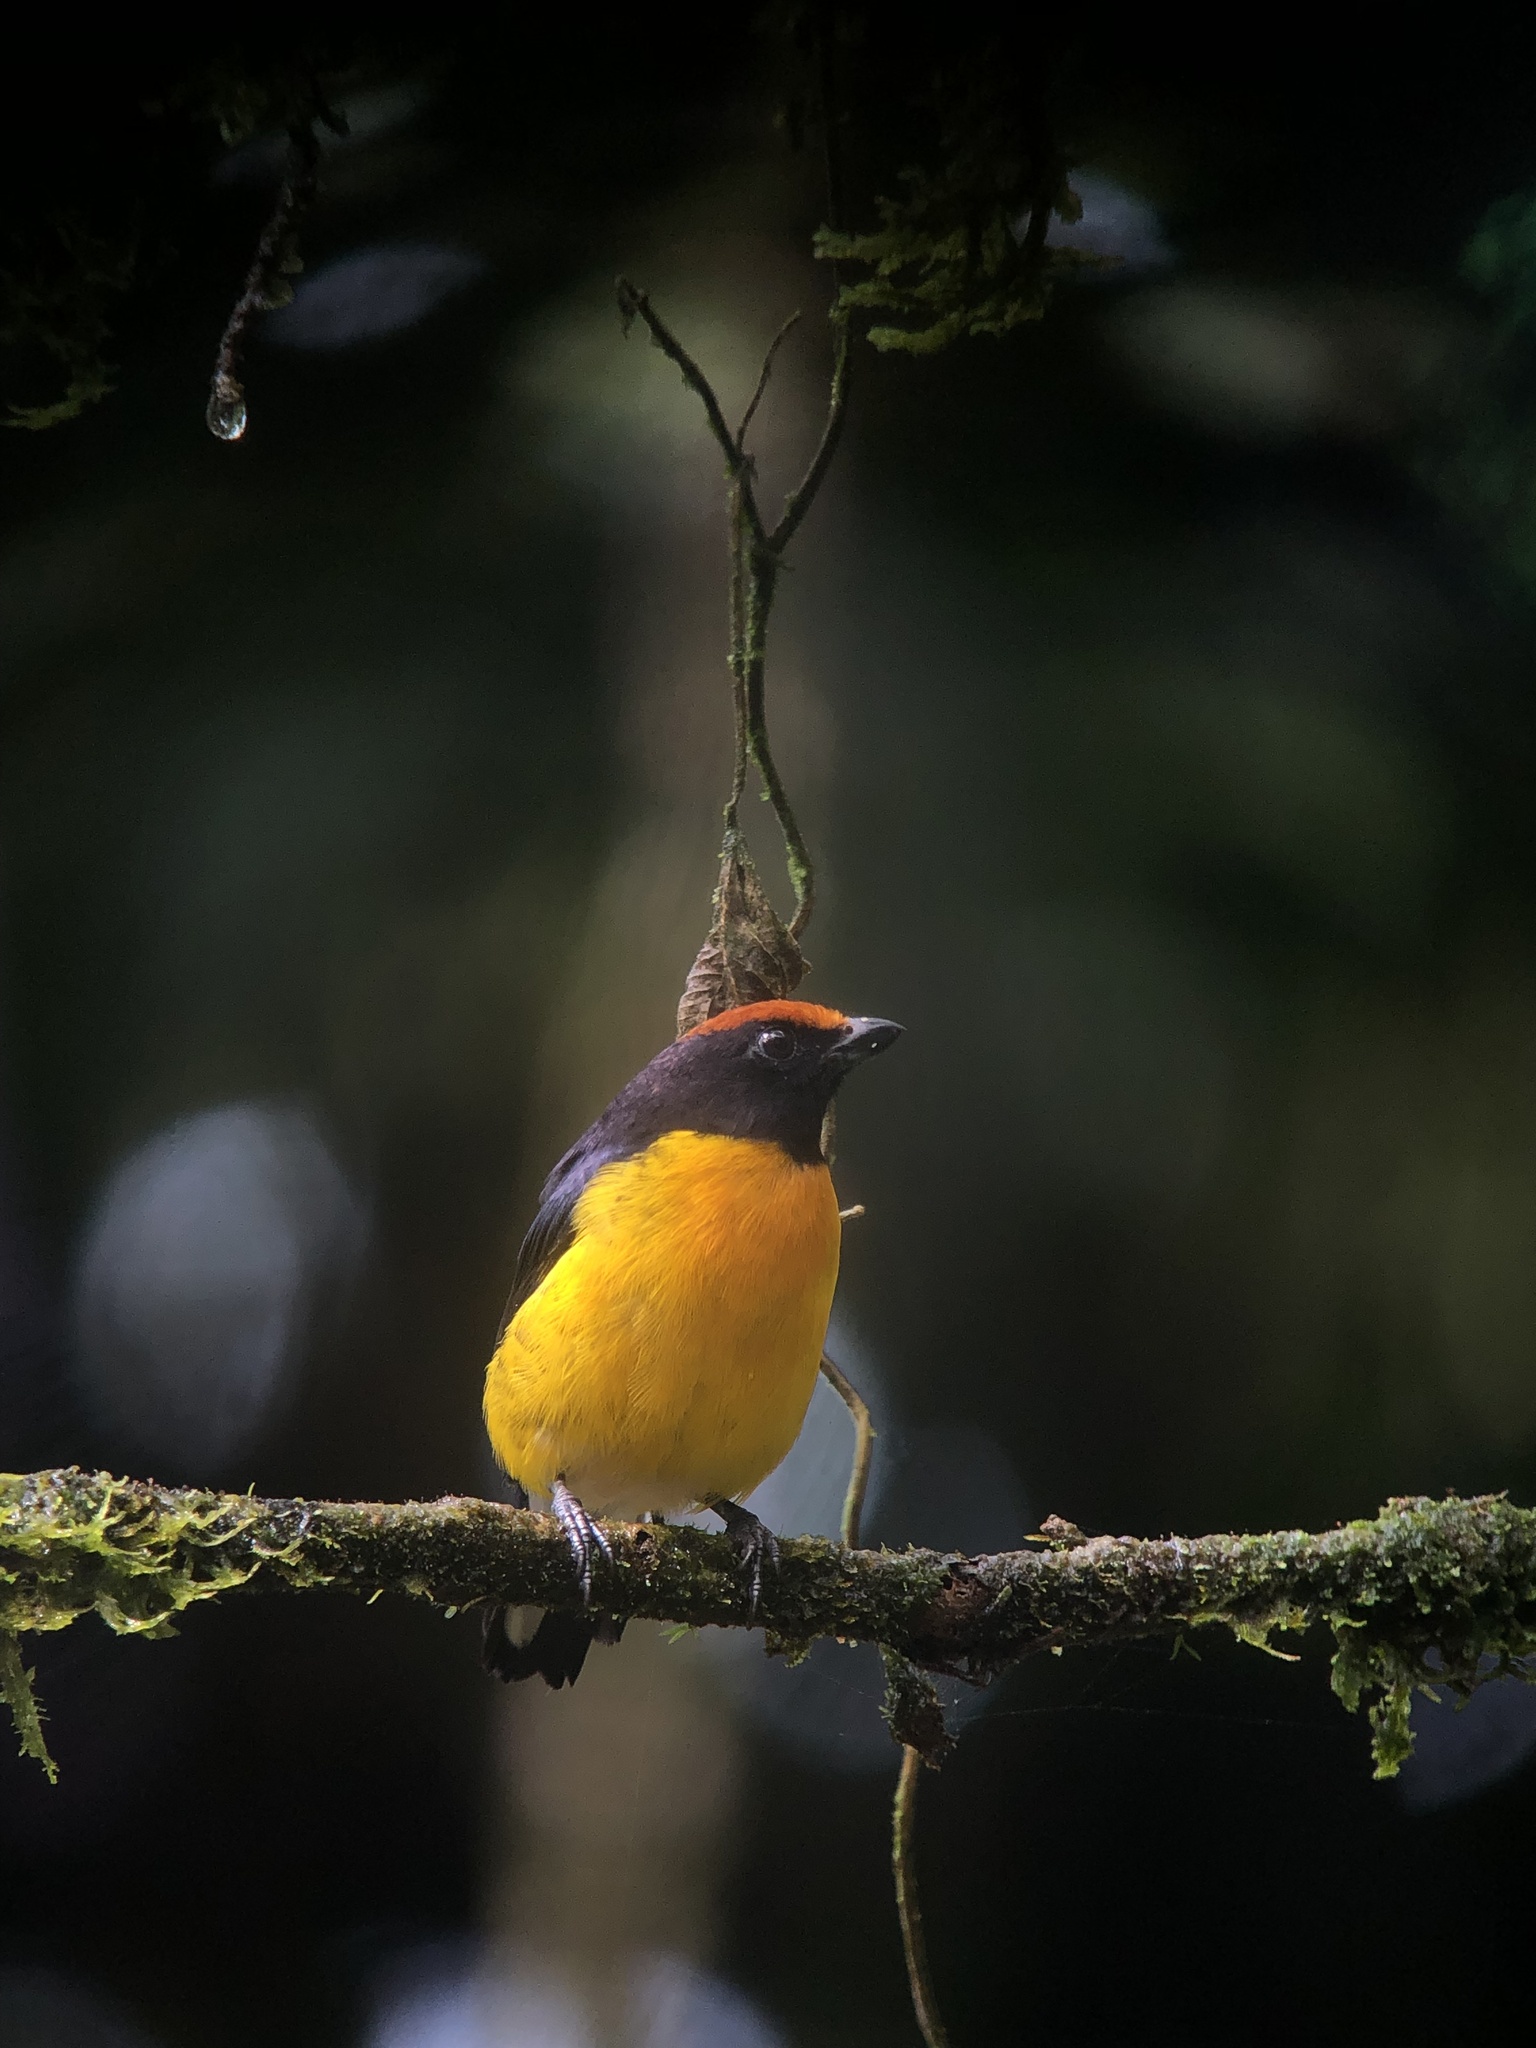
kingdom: Animalia
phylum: Chordata
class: Aves
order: Passeriformes
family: Fringillidae
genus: Euphonia
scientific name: Euphonia anneae
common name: Tawny-capped euphonia
